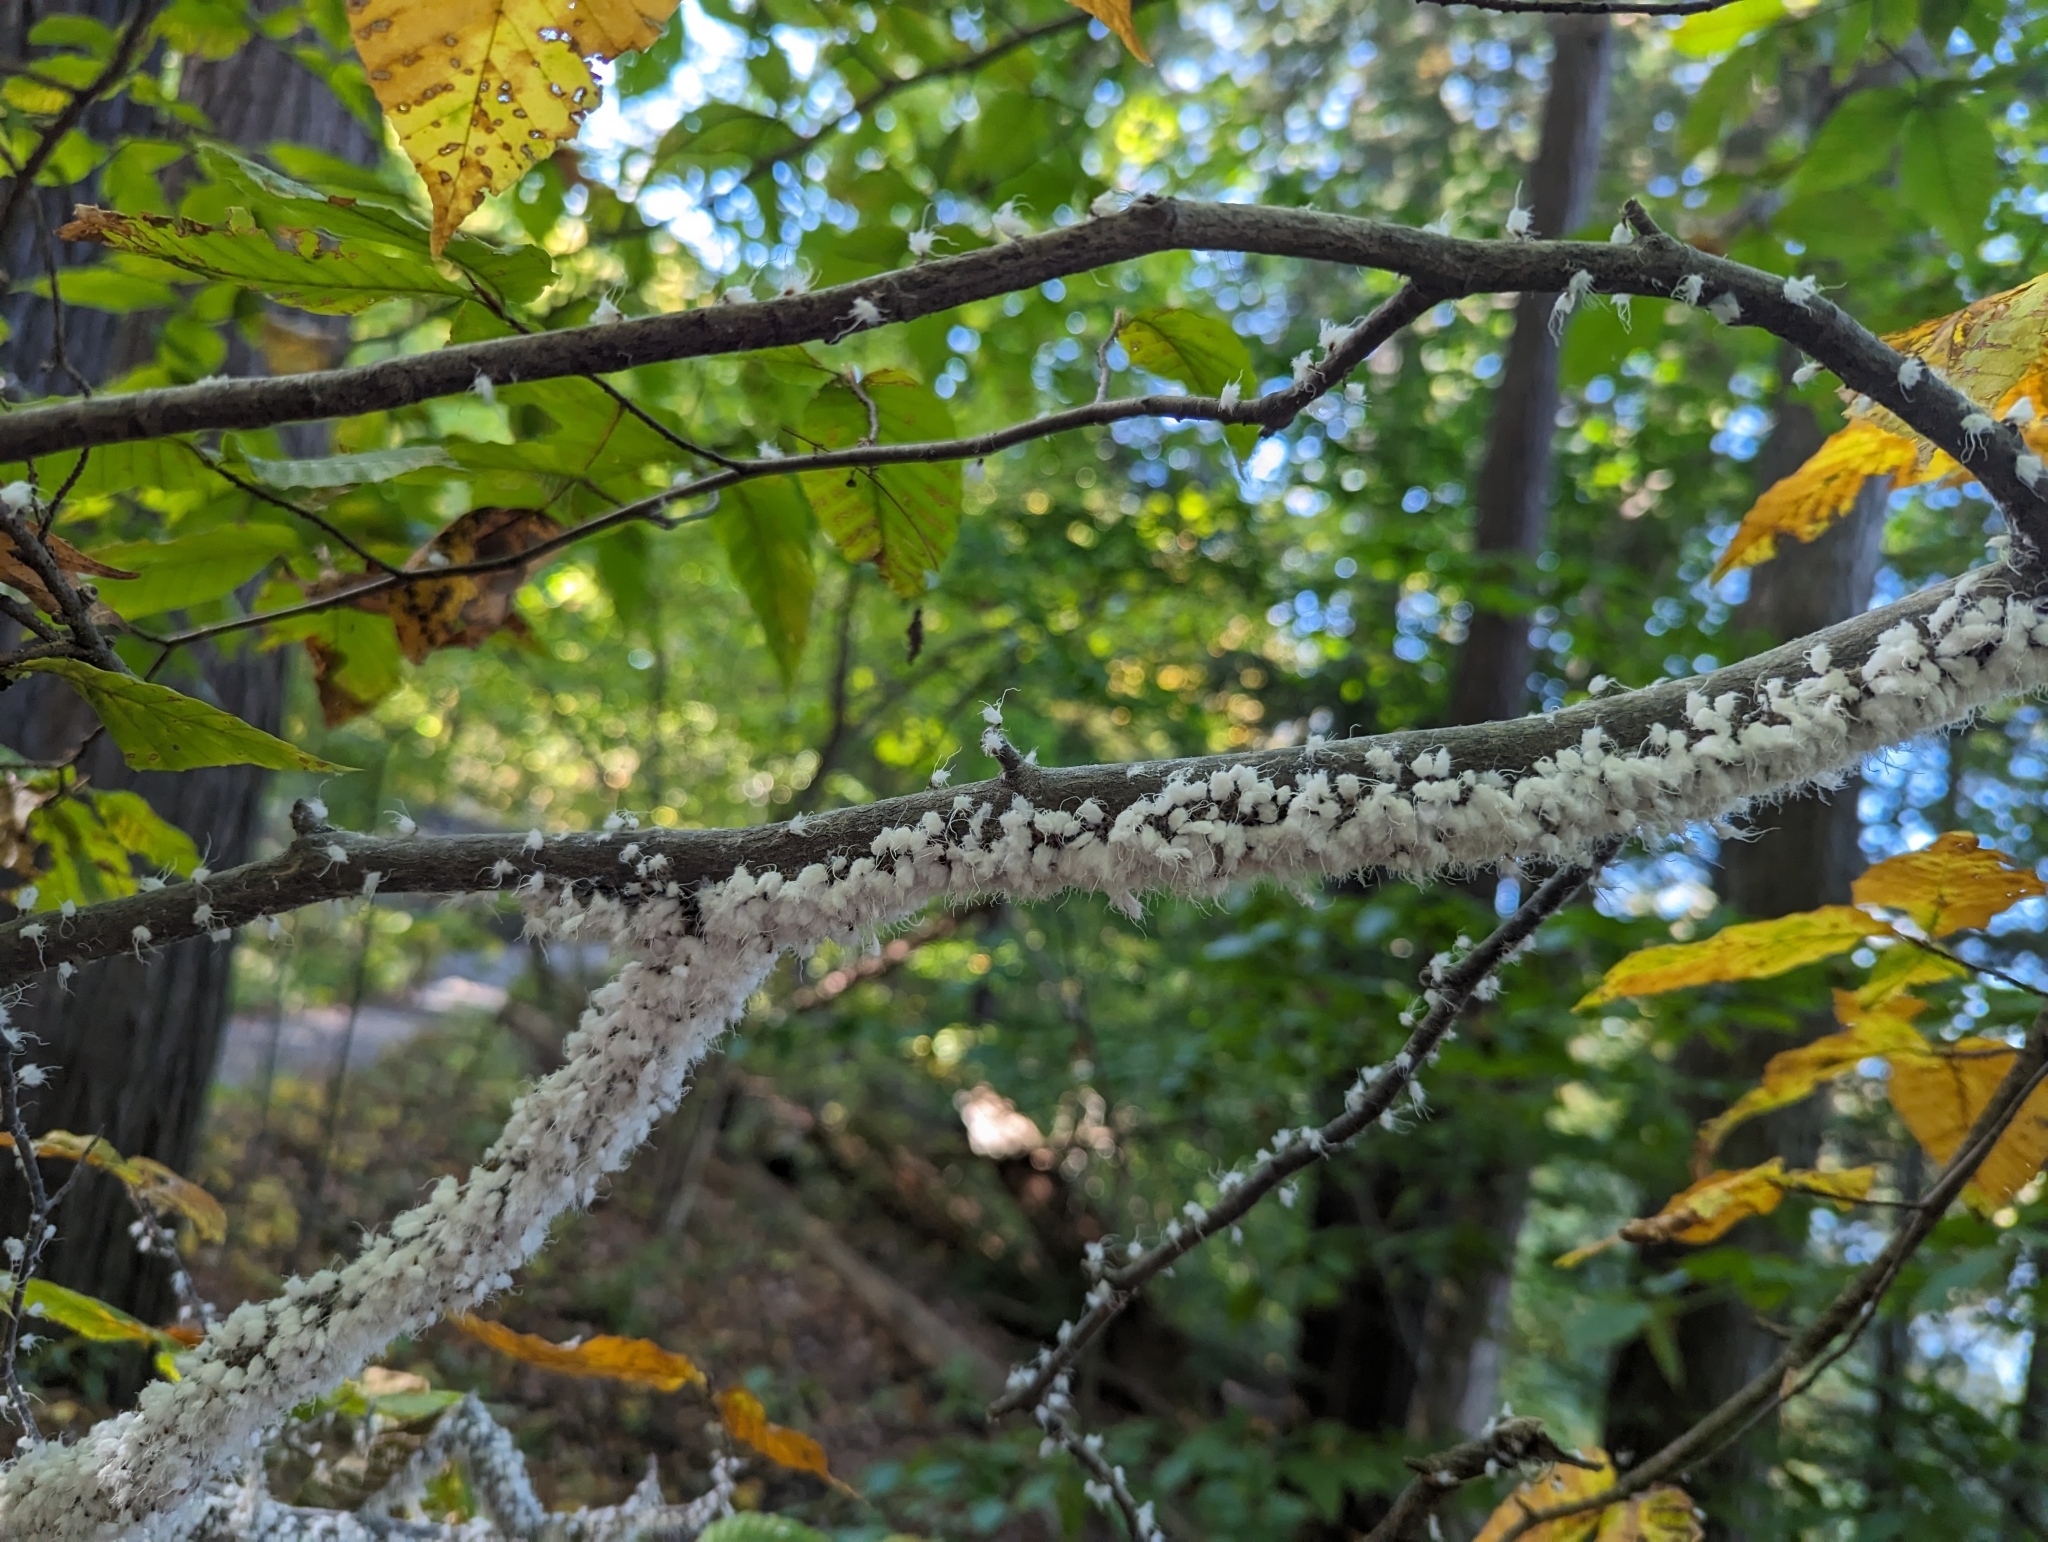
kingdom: Animalia
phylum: Arthropoda
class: Insecta
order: Hemiptera
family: Aphididae
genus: Grylloprociphilus
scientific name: Grylloprociphilus imbricator
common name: Beech blight aphid
